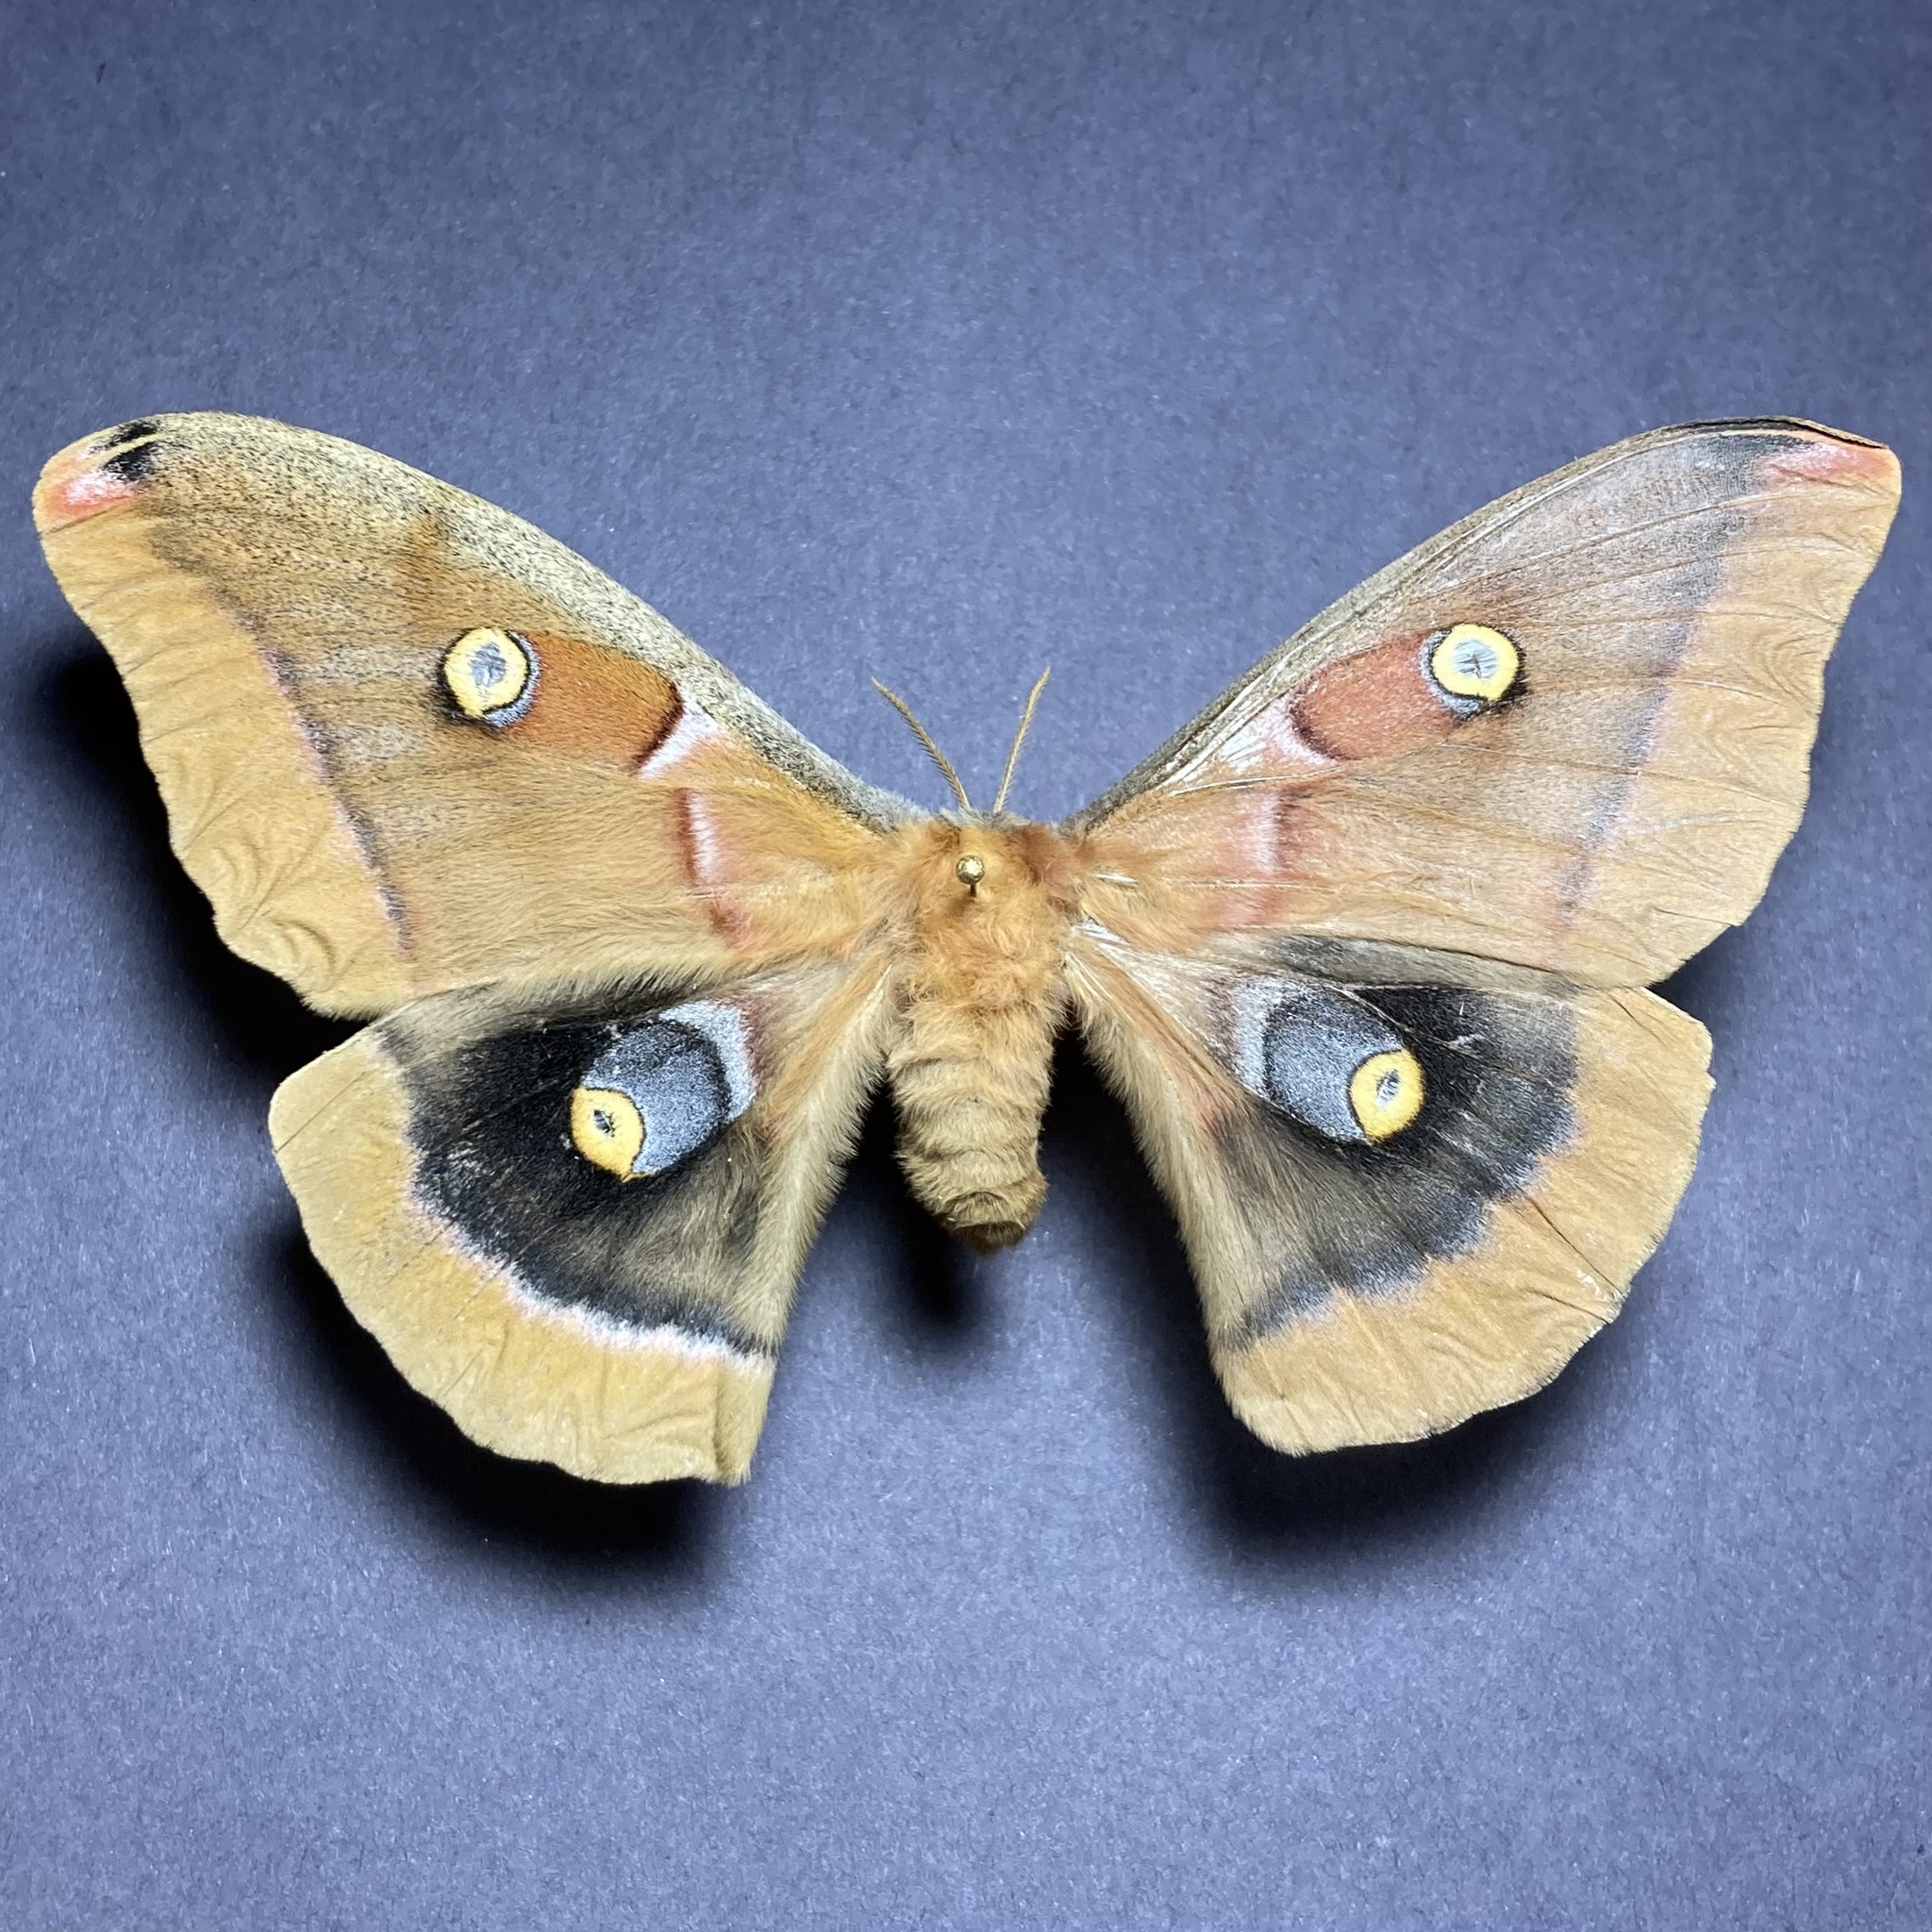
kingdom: Animalia
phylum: Arthropoda
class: Insecta
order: Lepidoptera
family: Saturniidae
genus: Antheraea
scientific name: Antheraea polyphemus
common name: Polyphemus moth
